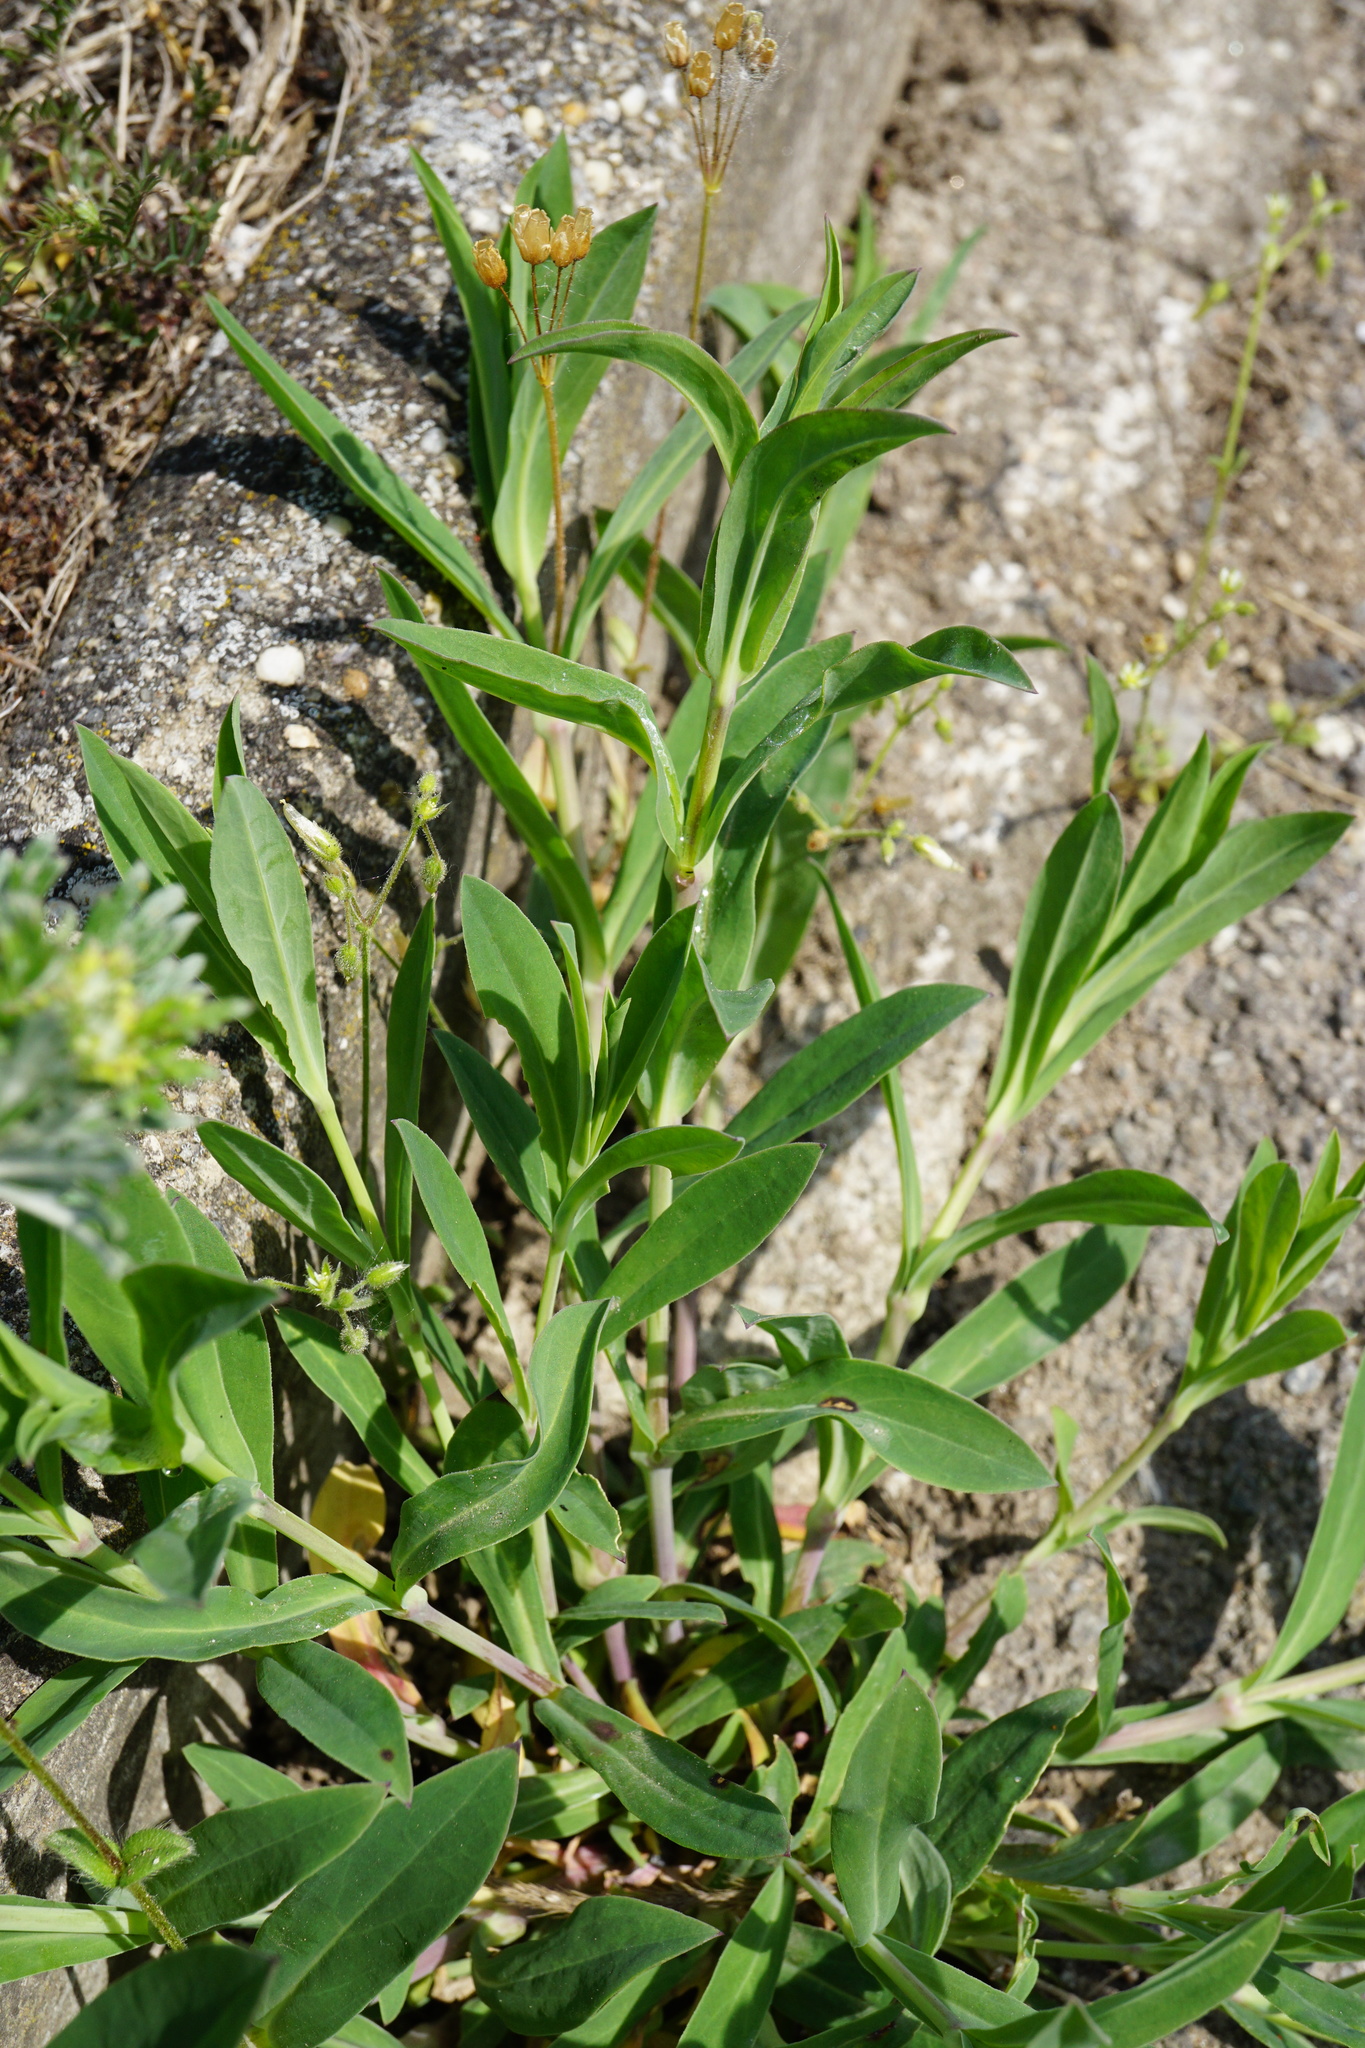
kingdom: Plantae
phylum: Tracheophyta
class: Magnoliopsida
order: Caryophyllales
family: Caryophyllaceae
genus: Silene
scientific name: Silene vulgaris
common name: Bladder campion
